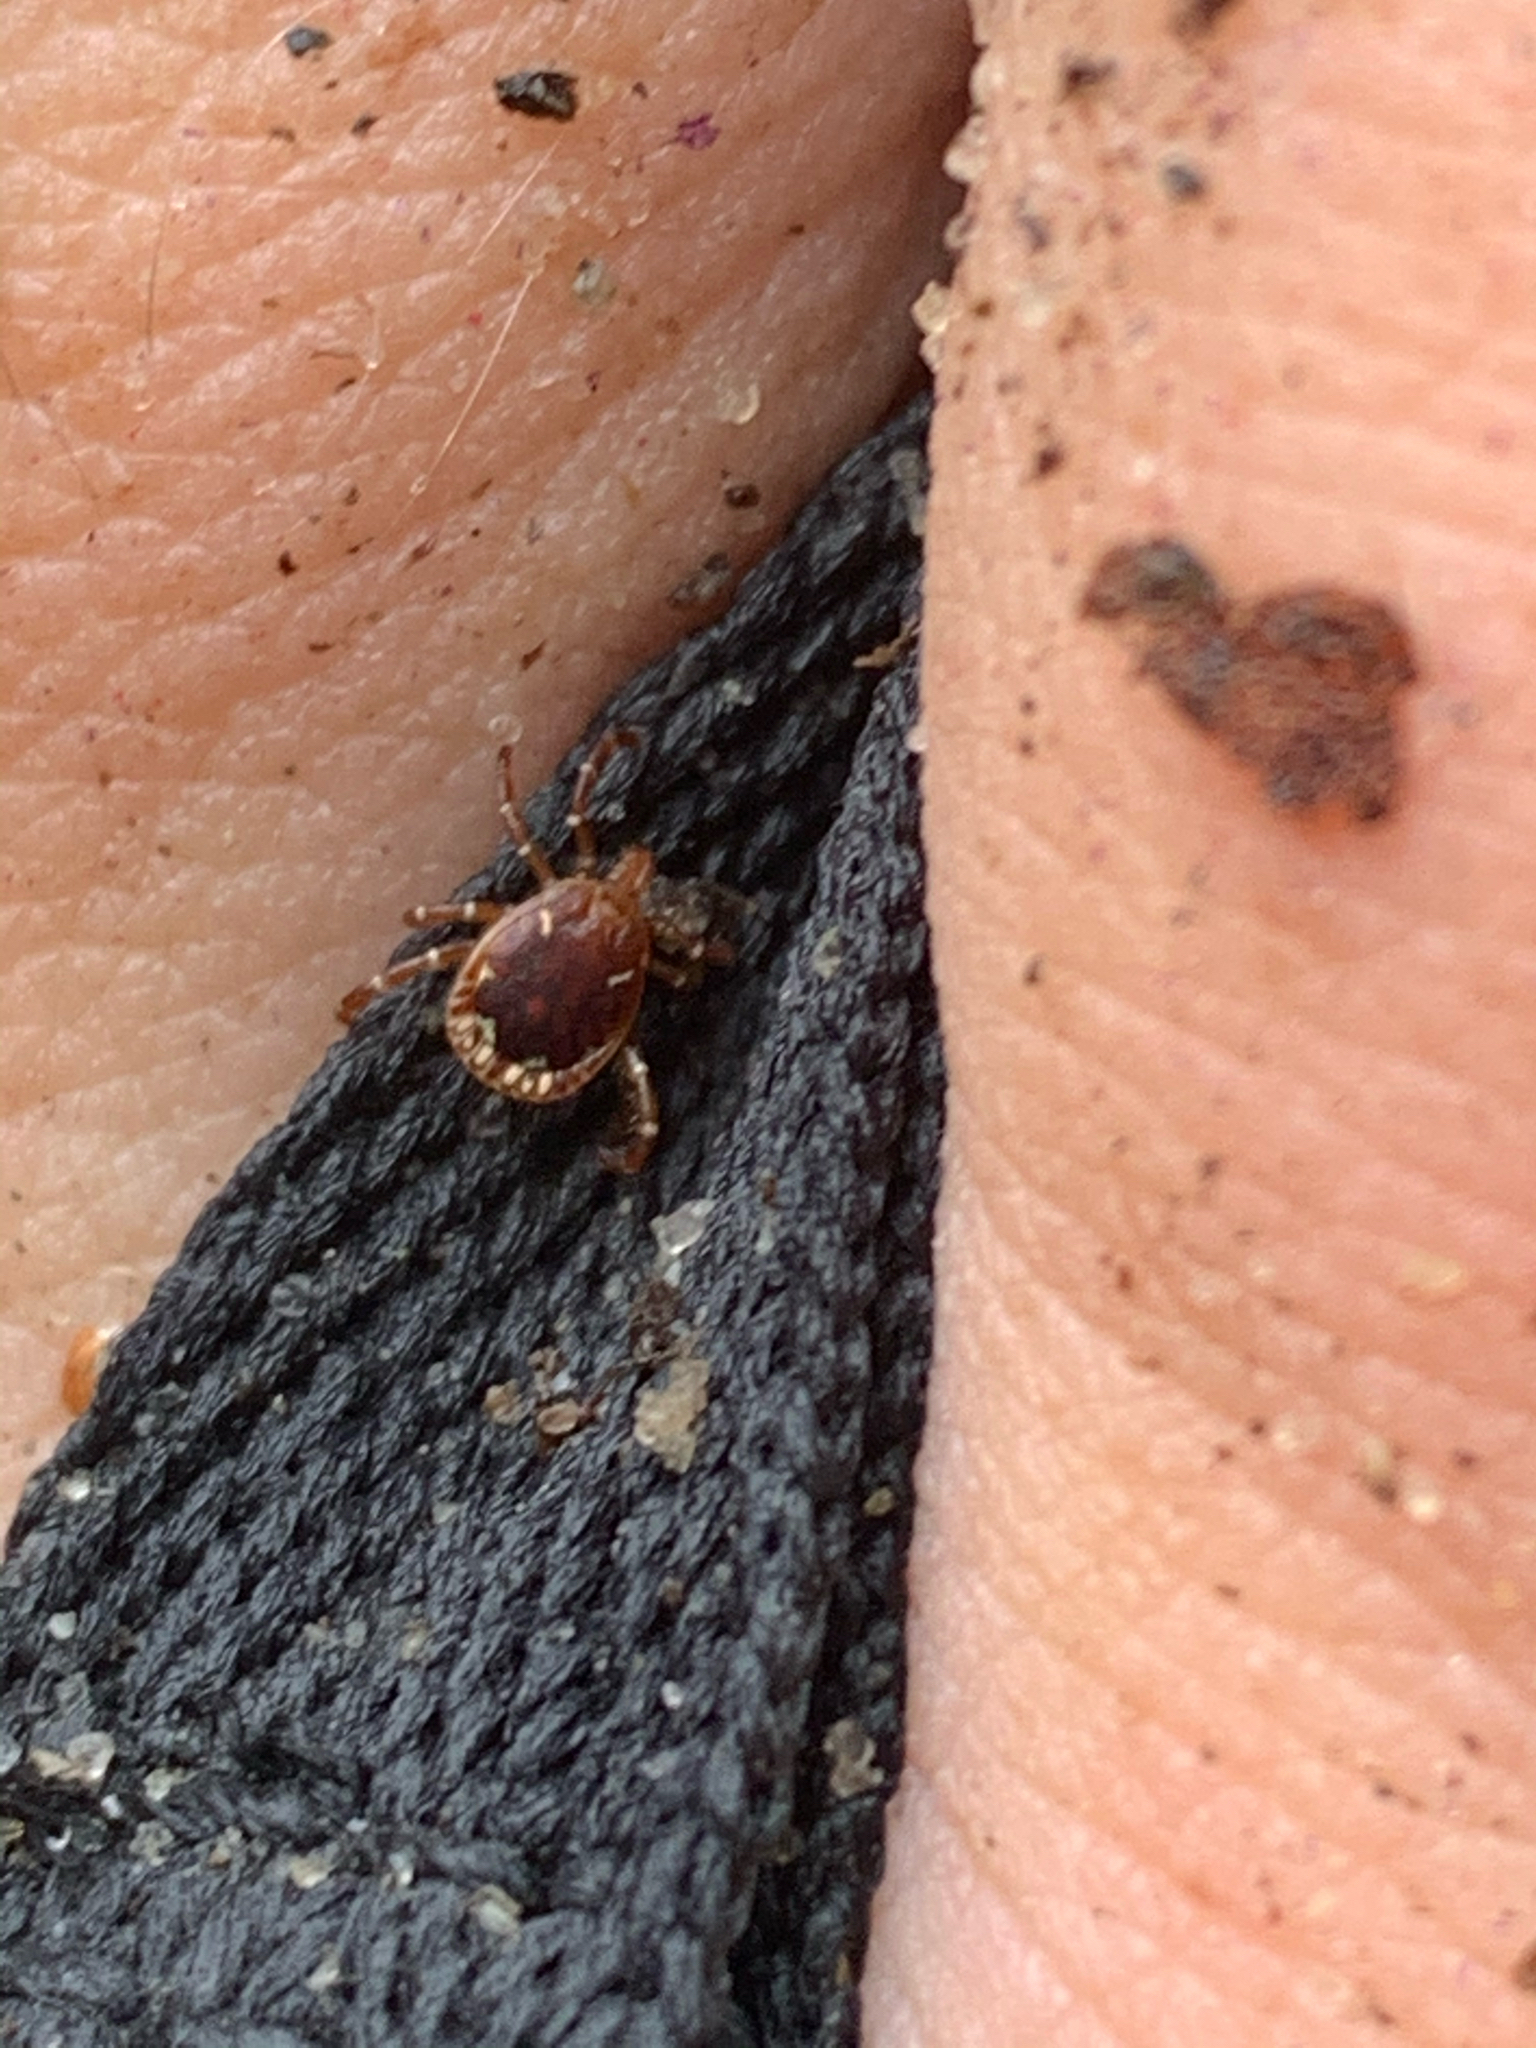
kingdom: Animalia
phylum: Arthropoda
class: Arachnida
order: Ixodida
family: Ixodidae
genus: Amblyomma
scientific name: Amblyomma americanum
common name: Lone star tick
